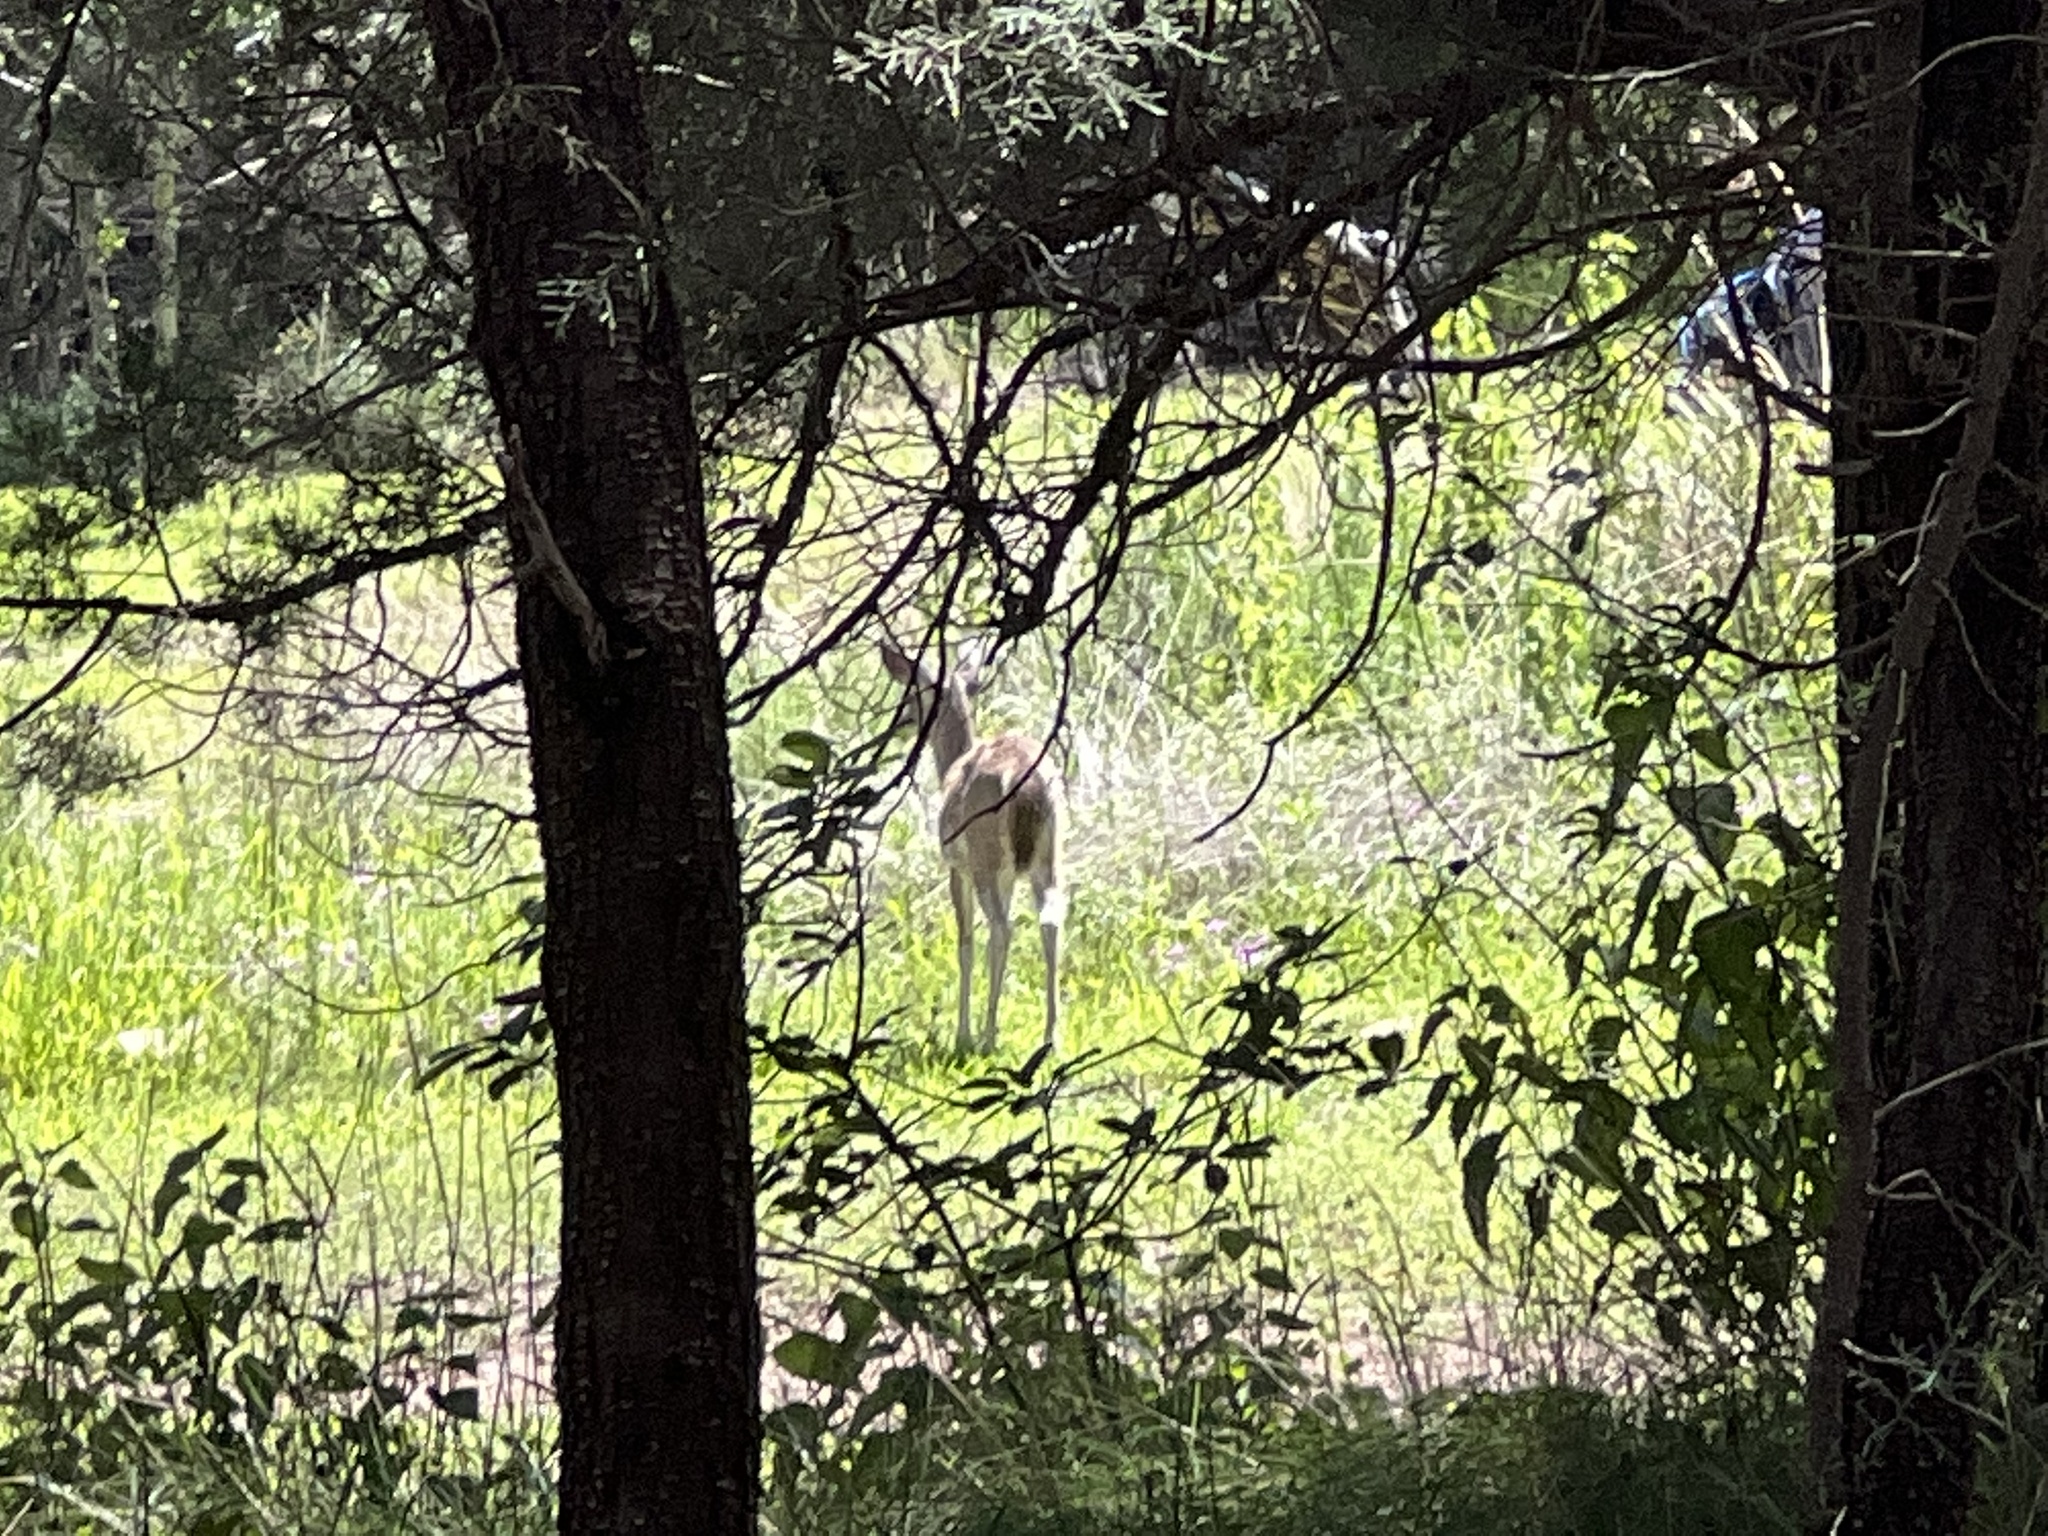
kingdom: Animalia
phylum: Chordata
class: Mammalia
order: Artiodactyla
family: Cervidae
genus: Odocoileus
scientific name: Odocoileus virginianus
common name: White-tailed deer
